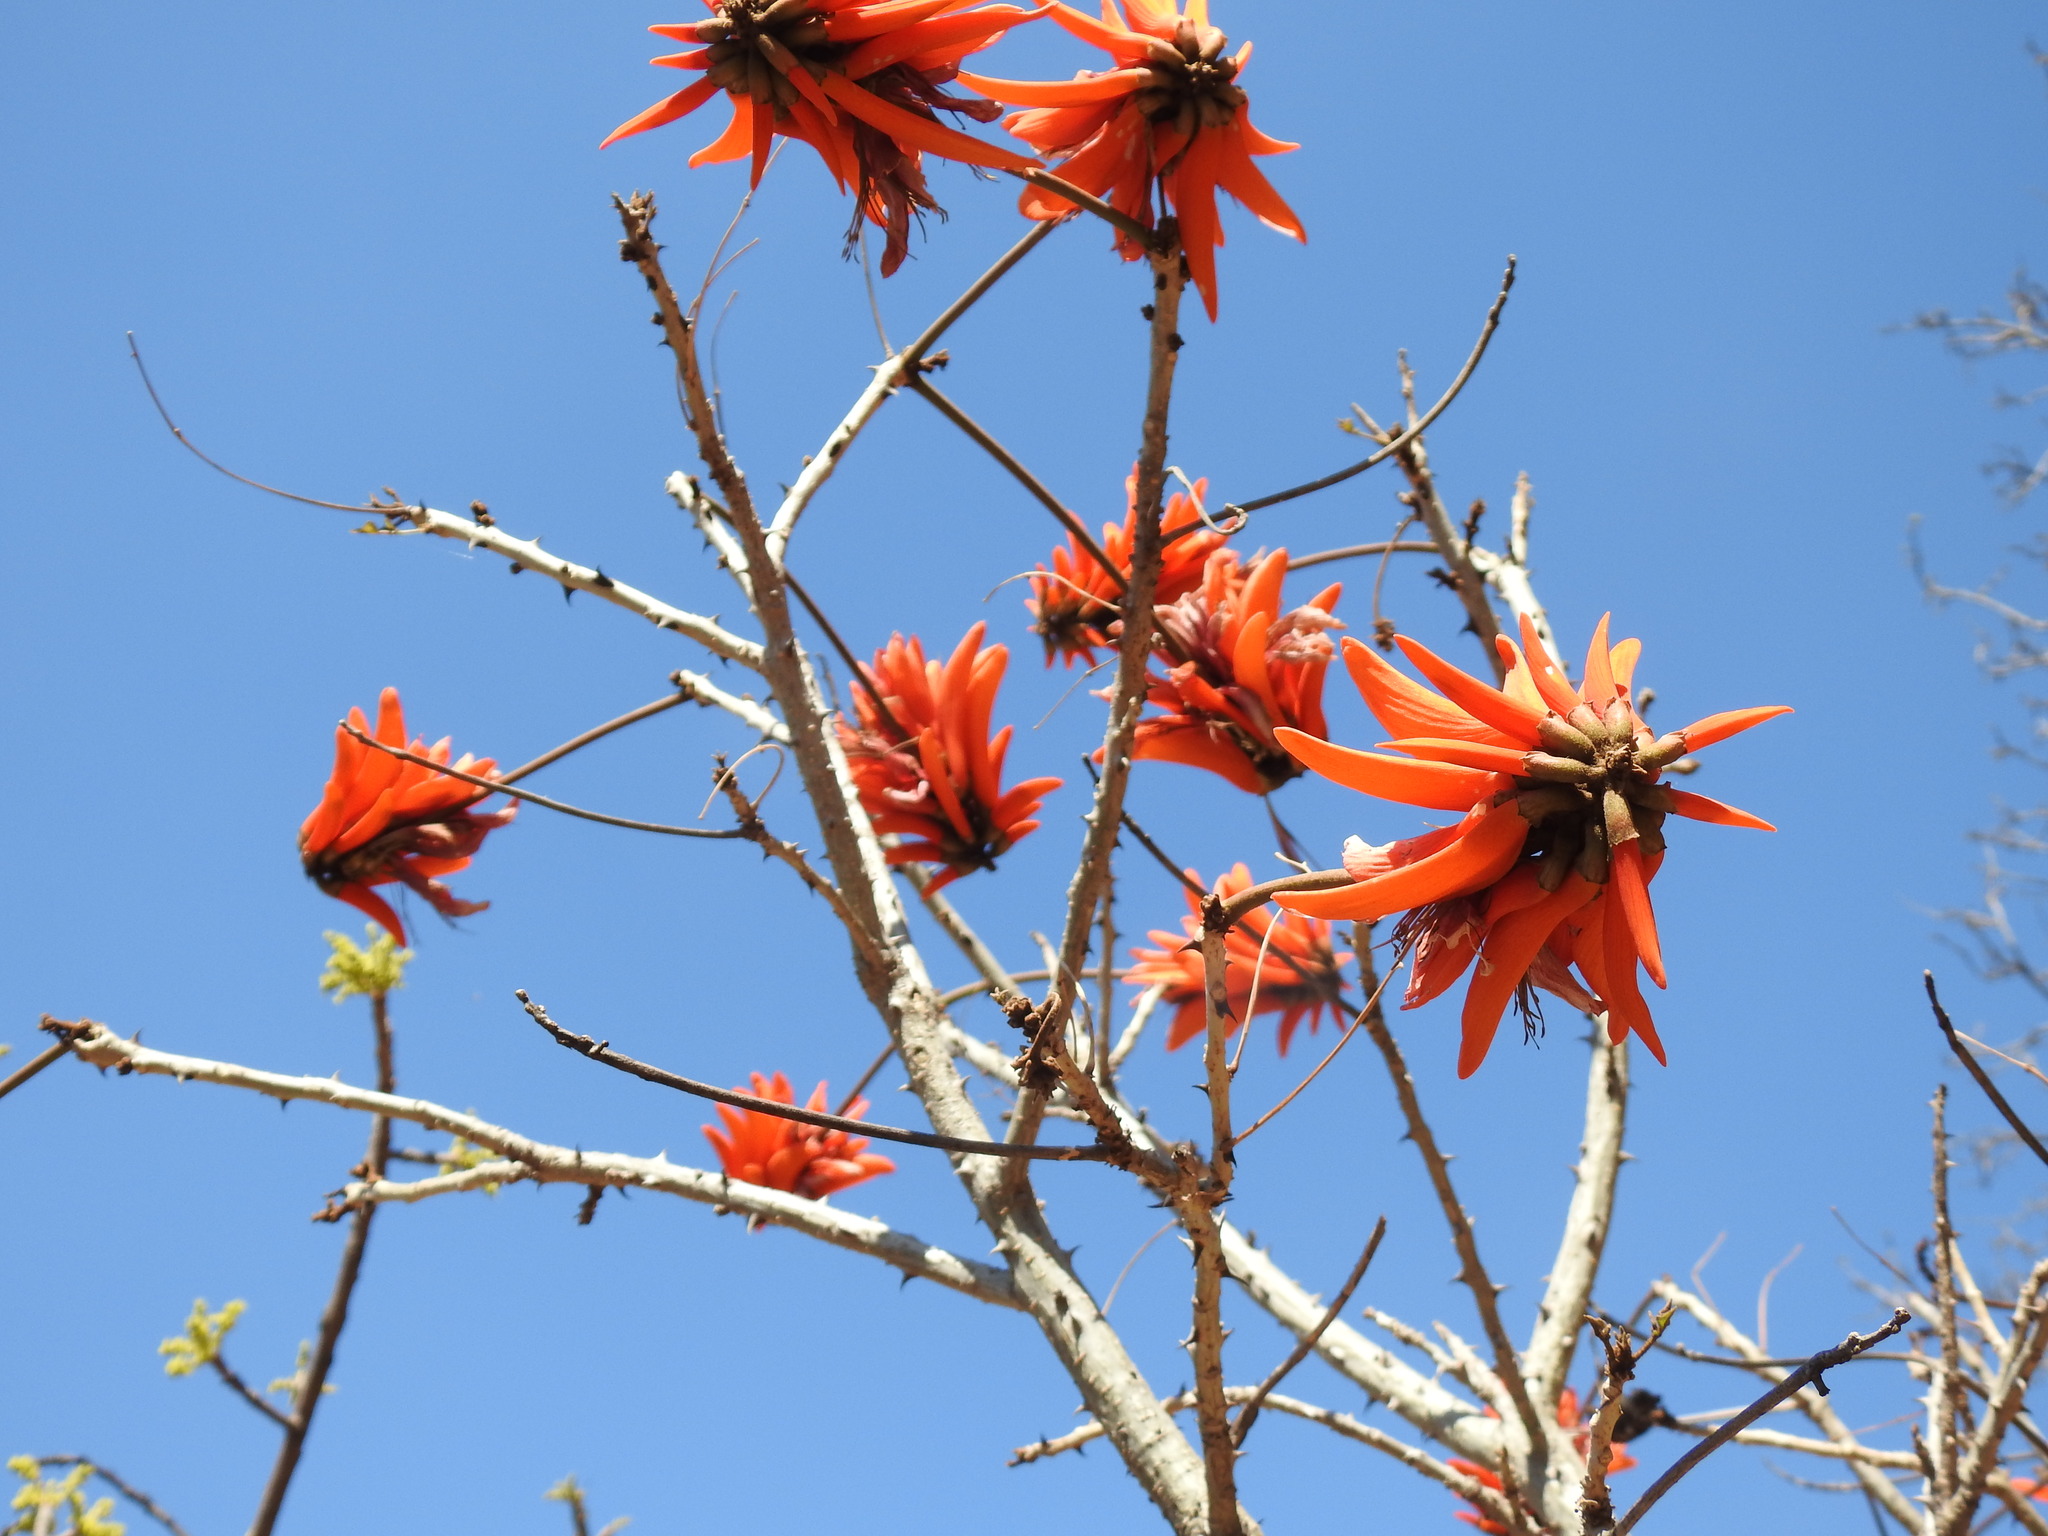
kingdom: Plantae
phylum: Tracheophyta
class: Magnoliopsida
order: Fabales
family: Fabaceae
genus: Erythrina
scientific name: Erythrina lysistemon
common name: Common coral tree
